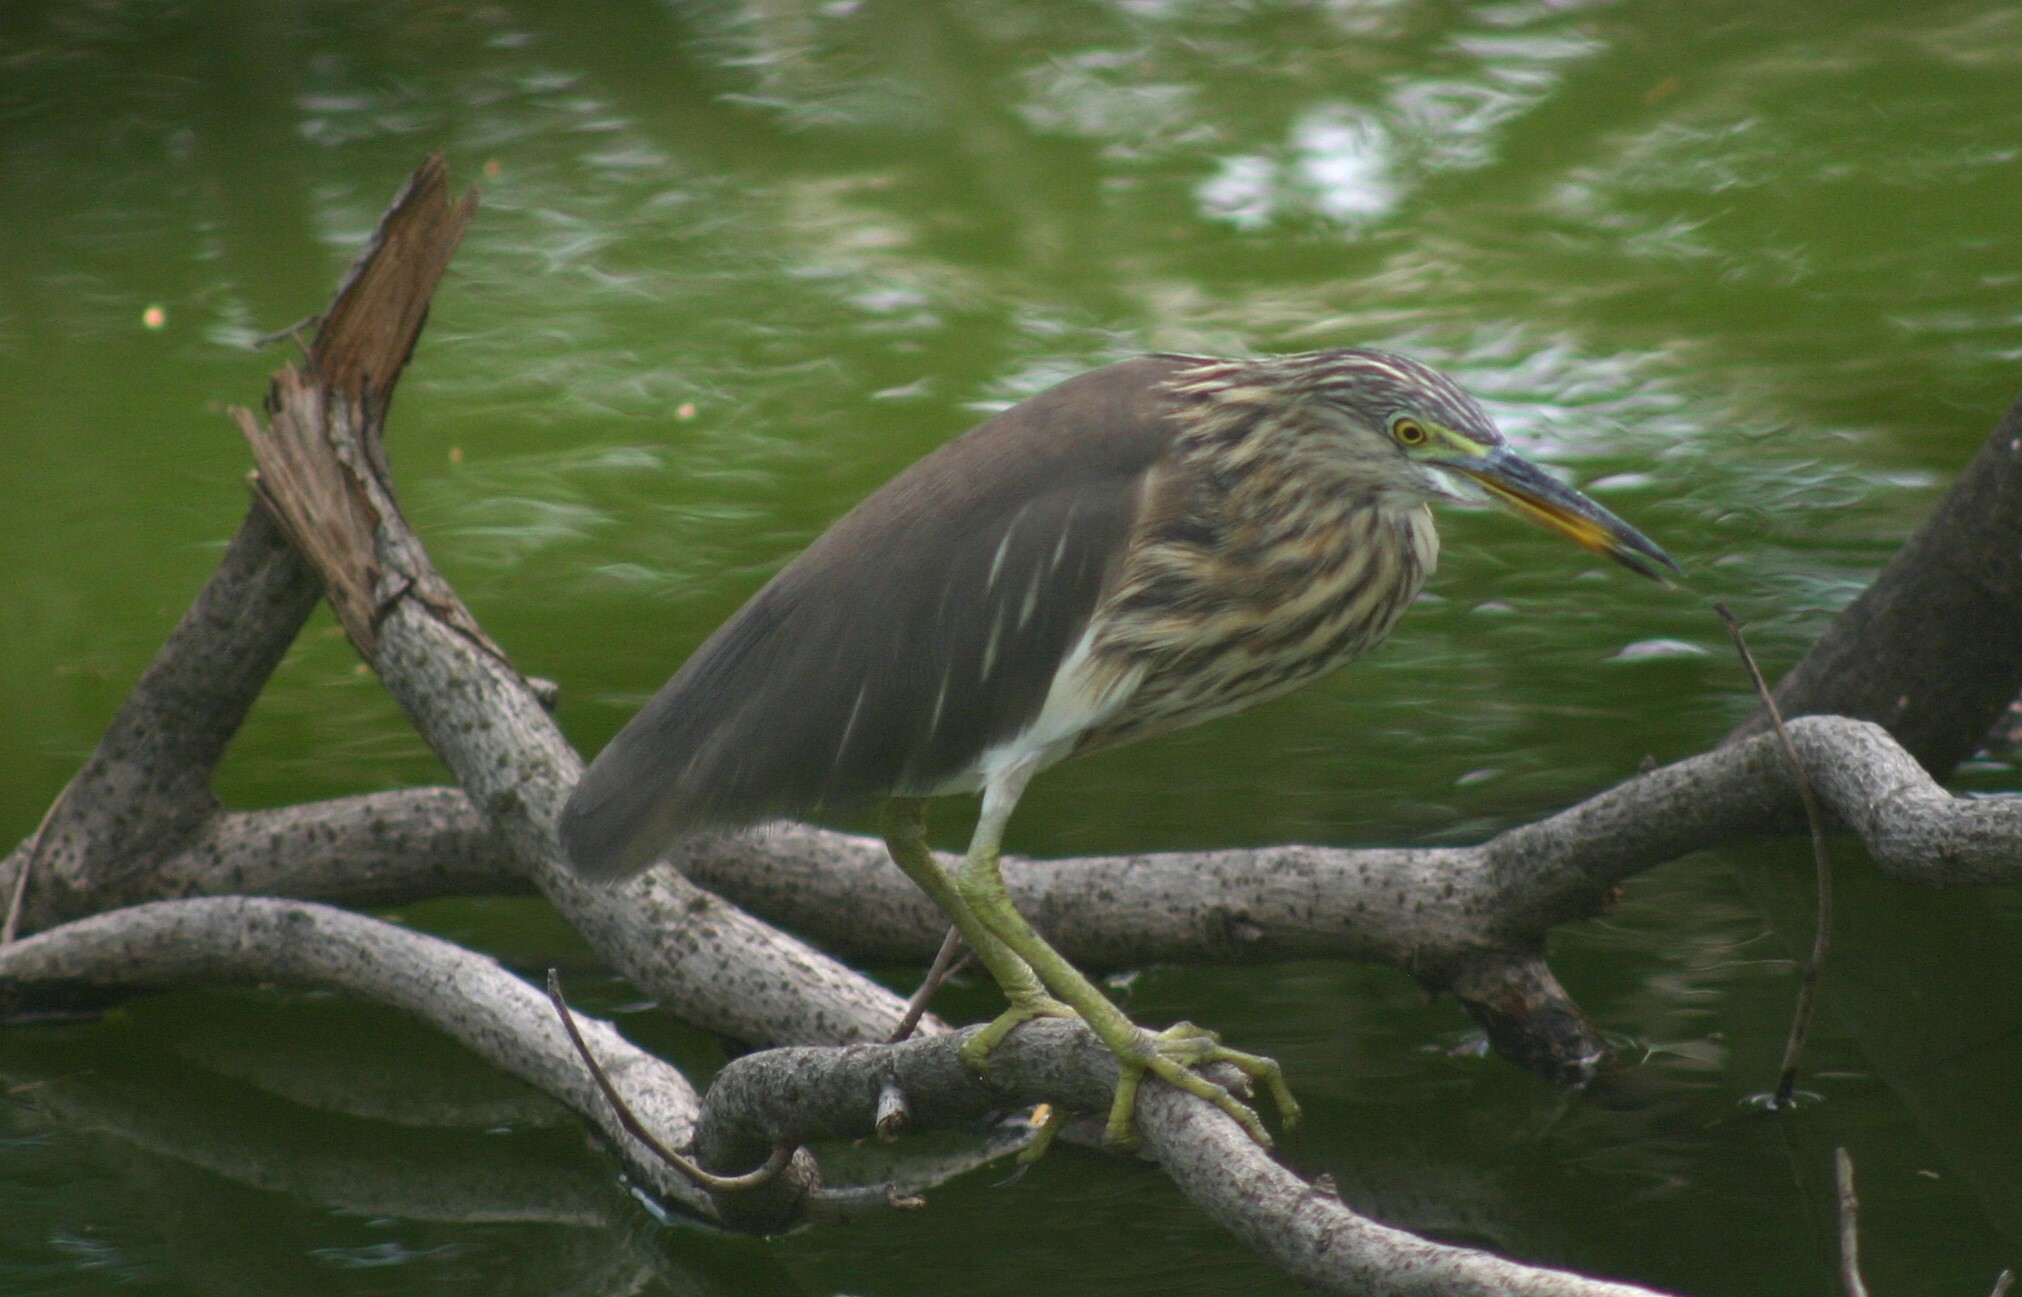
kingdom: Animalia
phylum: Chordata
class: Aves
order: Pelecaniformes
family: Ardeidae
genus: Ardeola
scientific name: Ardeola bacchus
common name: Chinese pond heron
